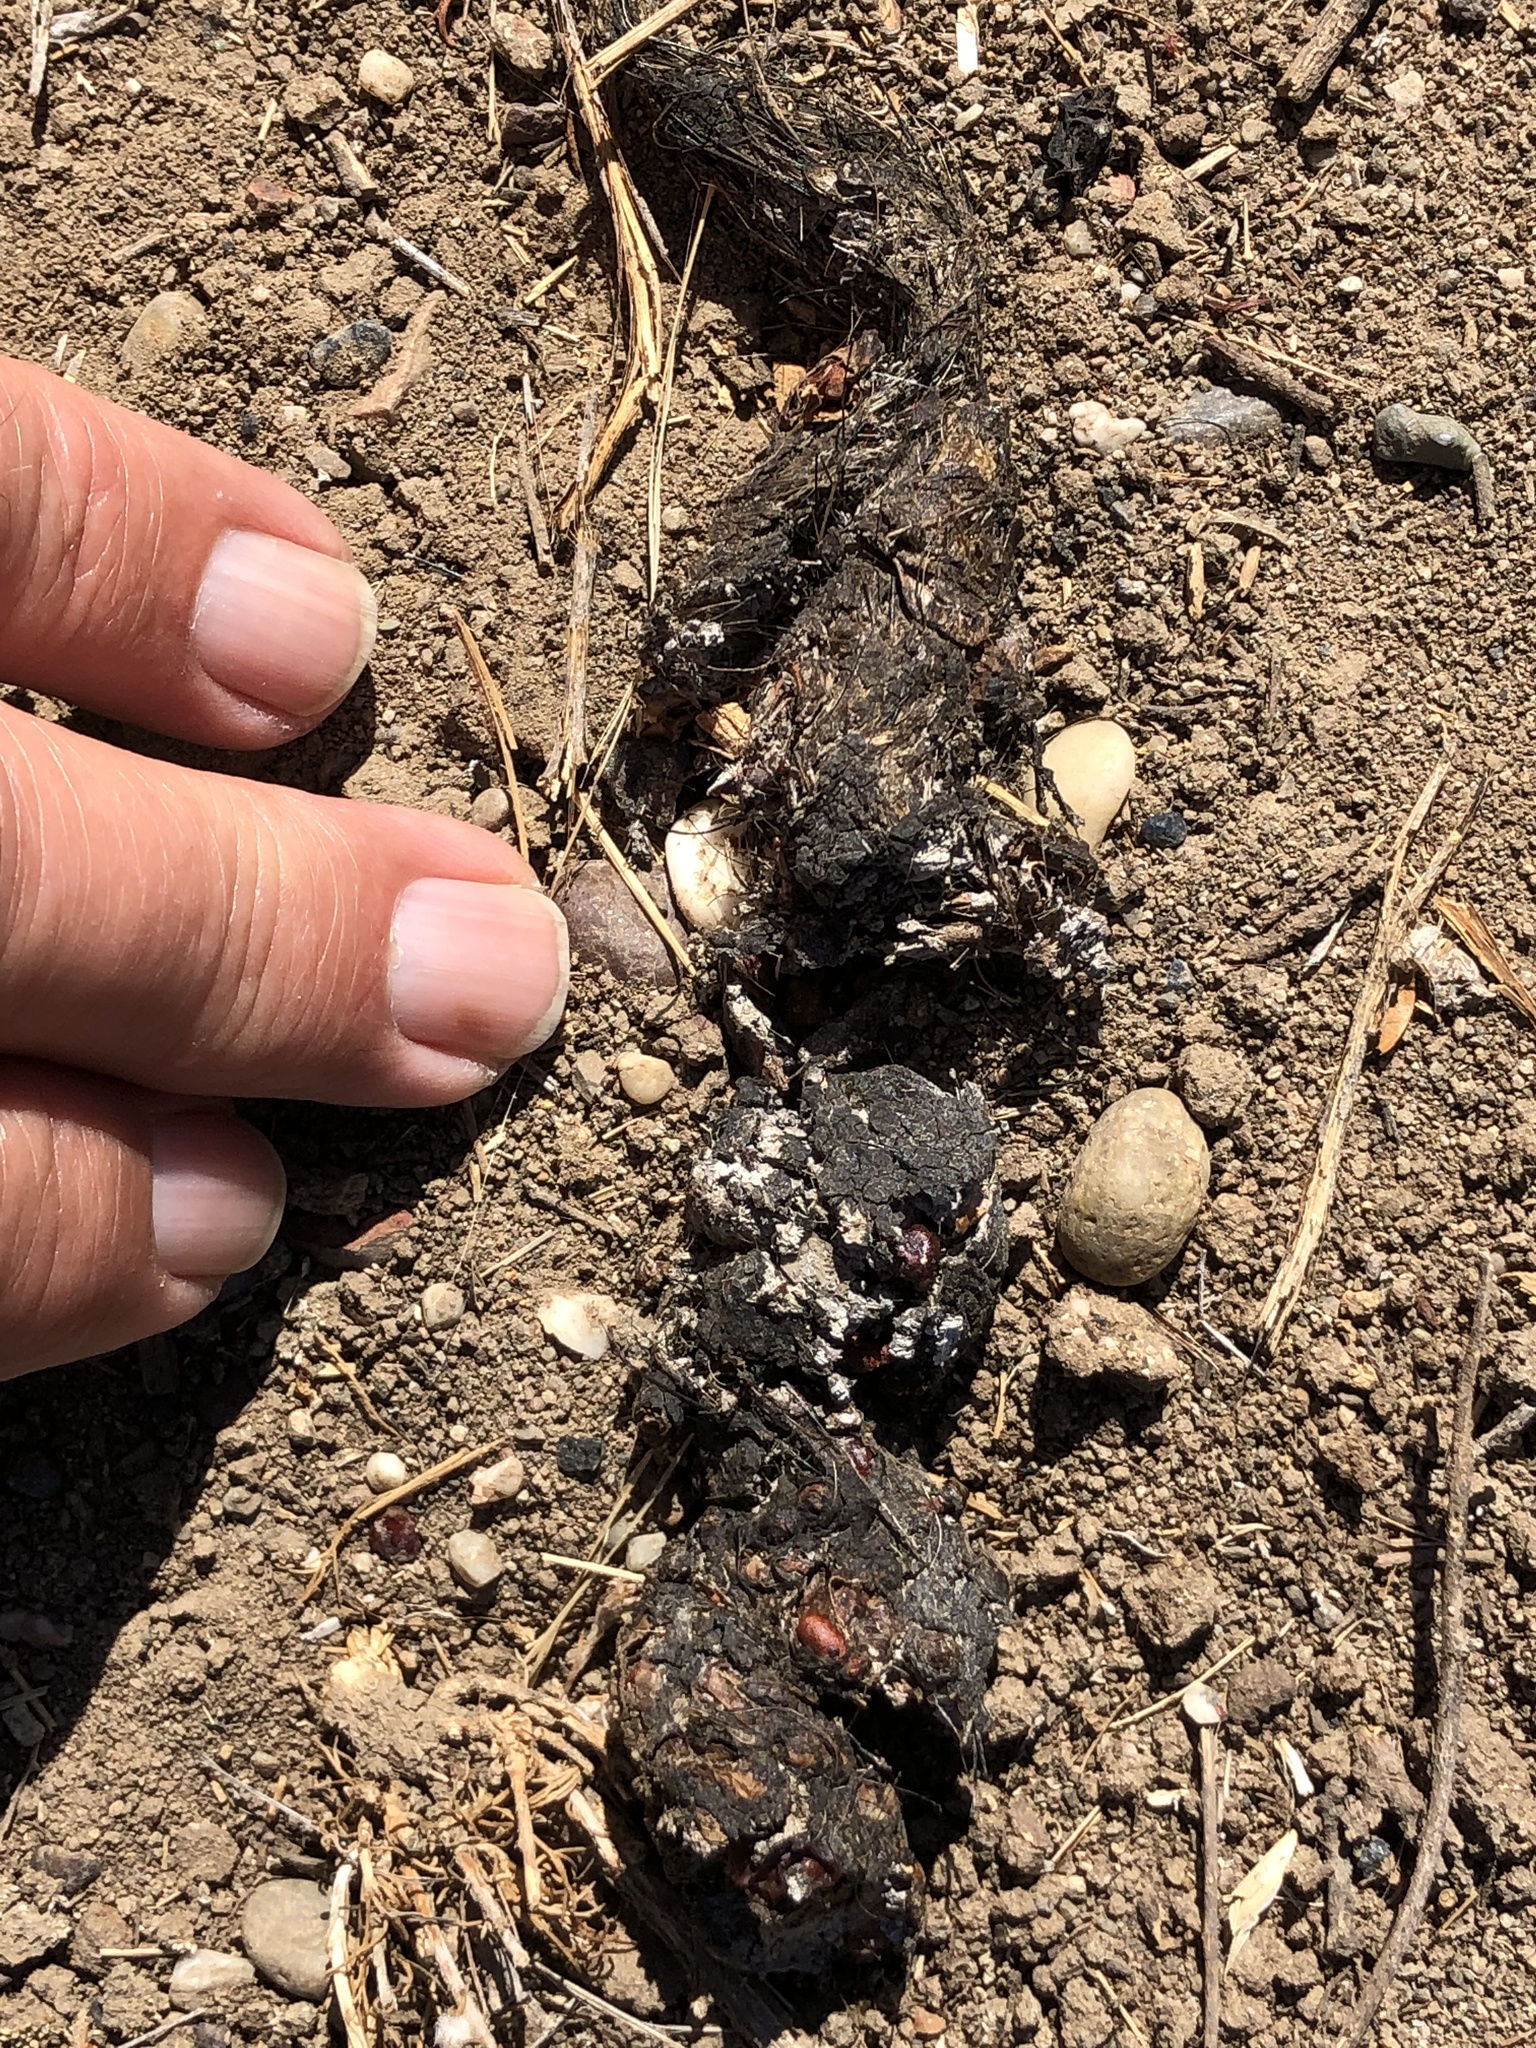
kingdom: Animalia
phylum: Chordata
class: Mammalia
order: Carnivora
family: Canidae
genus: Canis
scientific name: Canis latrans
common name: Coyote
